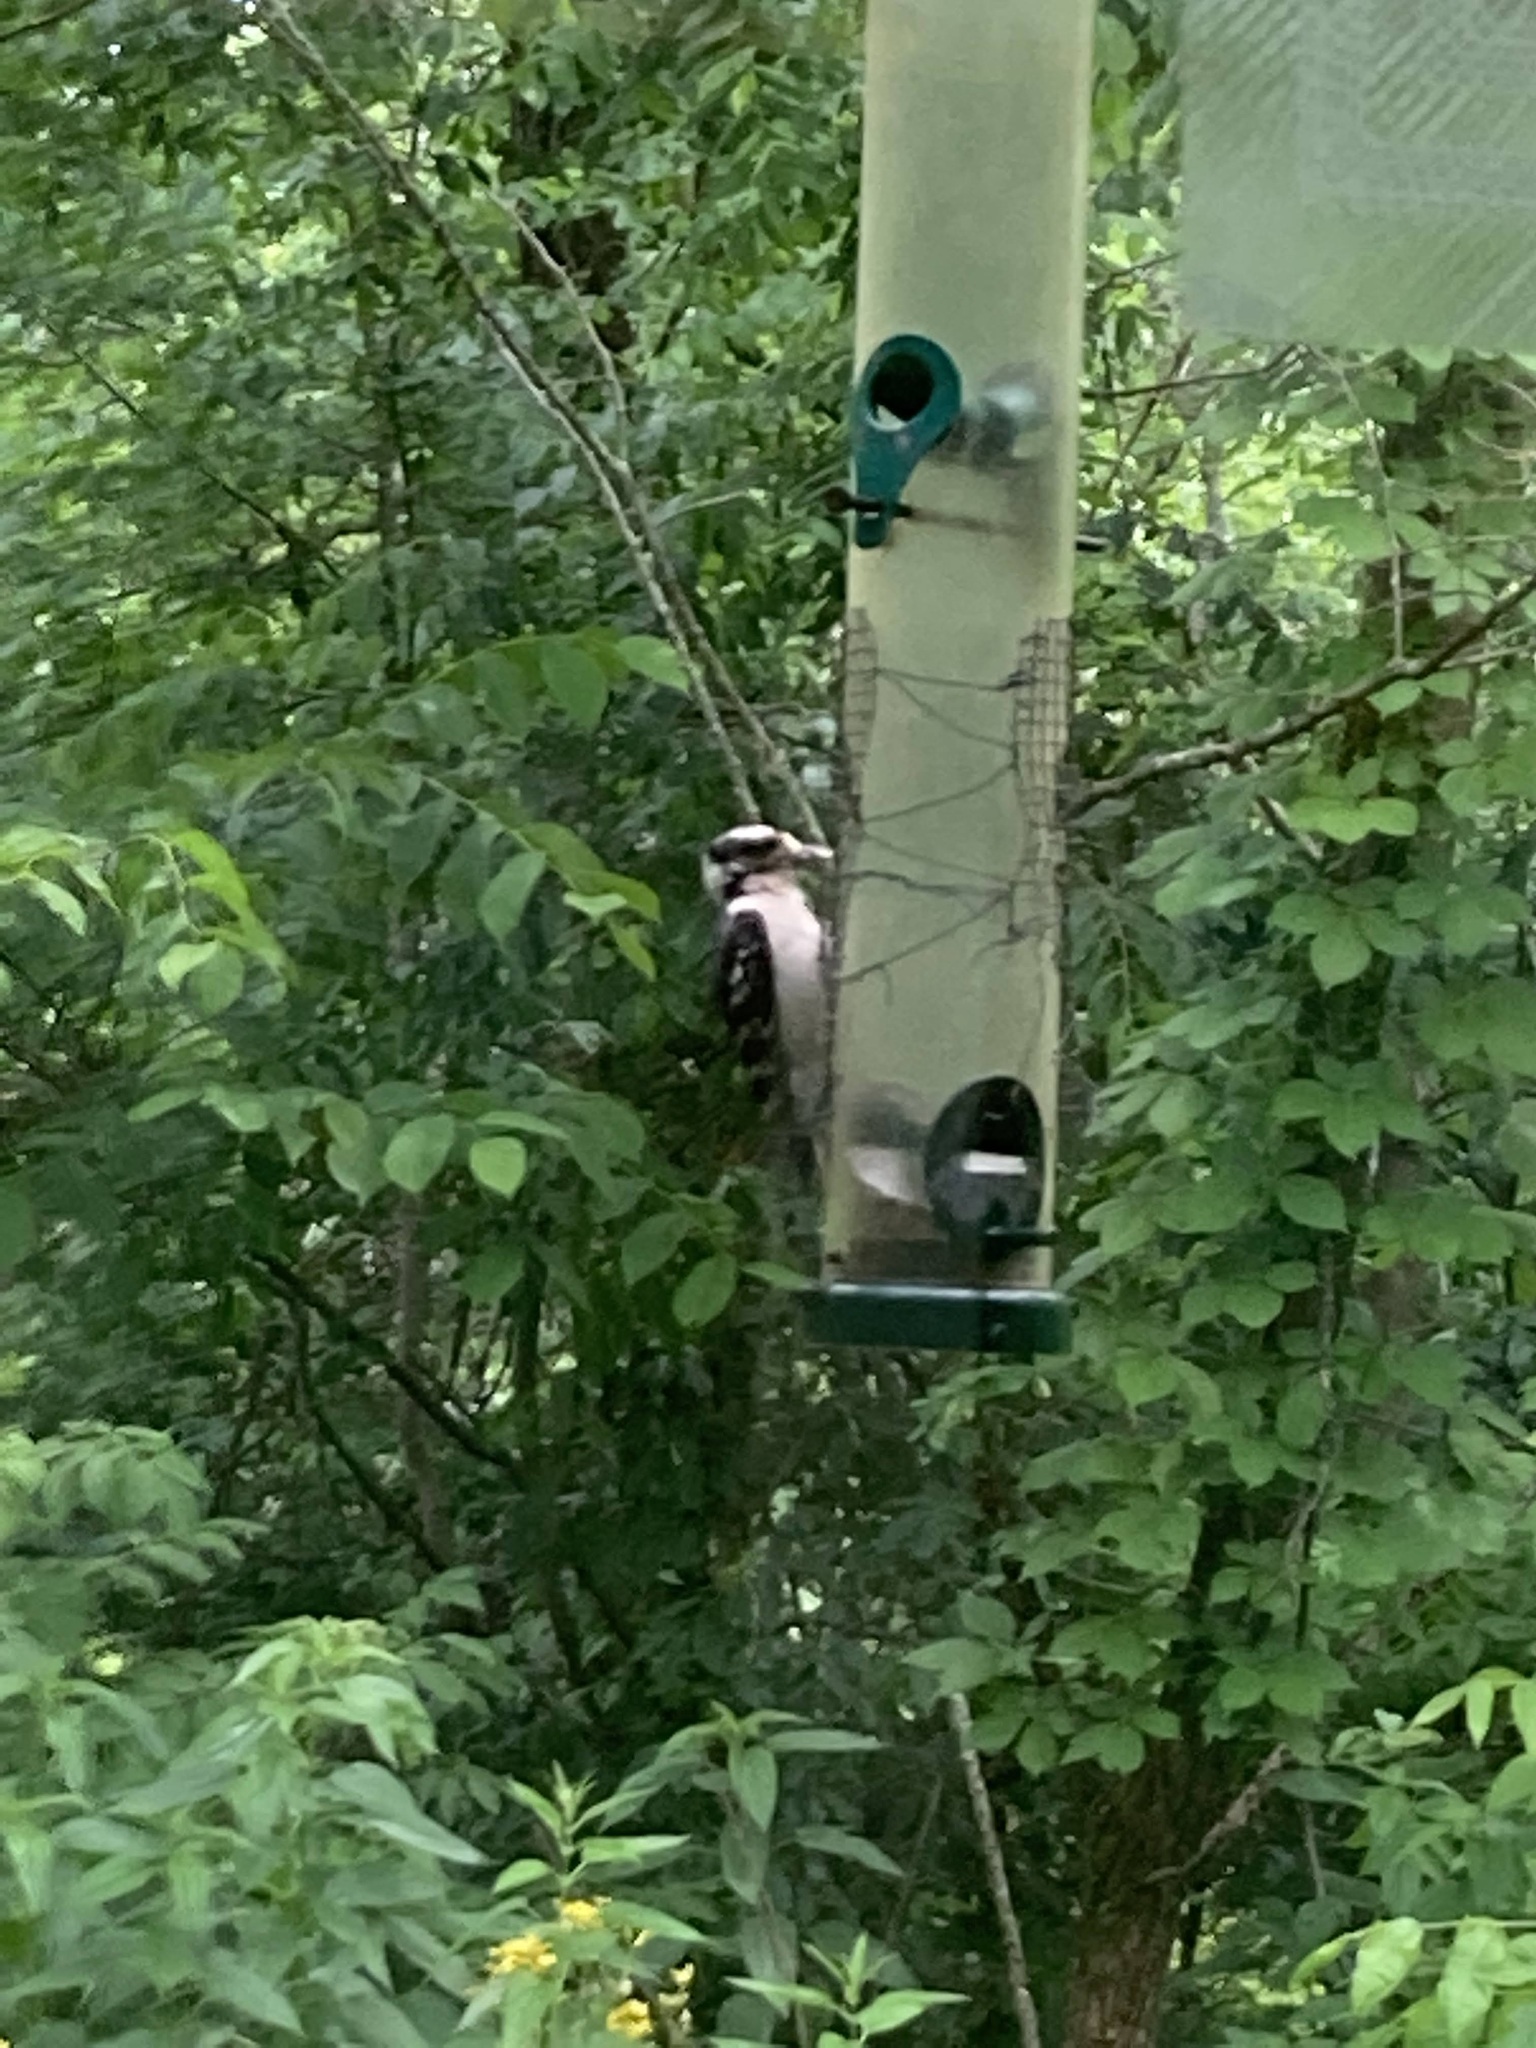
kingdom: Animalia
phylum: Chordata
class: Aves
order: Piciformes
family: Picidae
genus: Dryobates
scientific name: Dryobates pubescens
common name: Downy woodpecker
